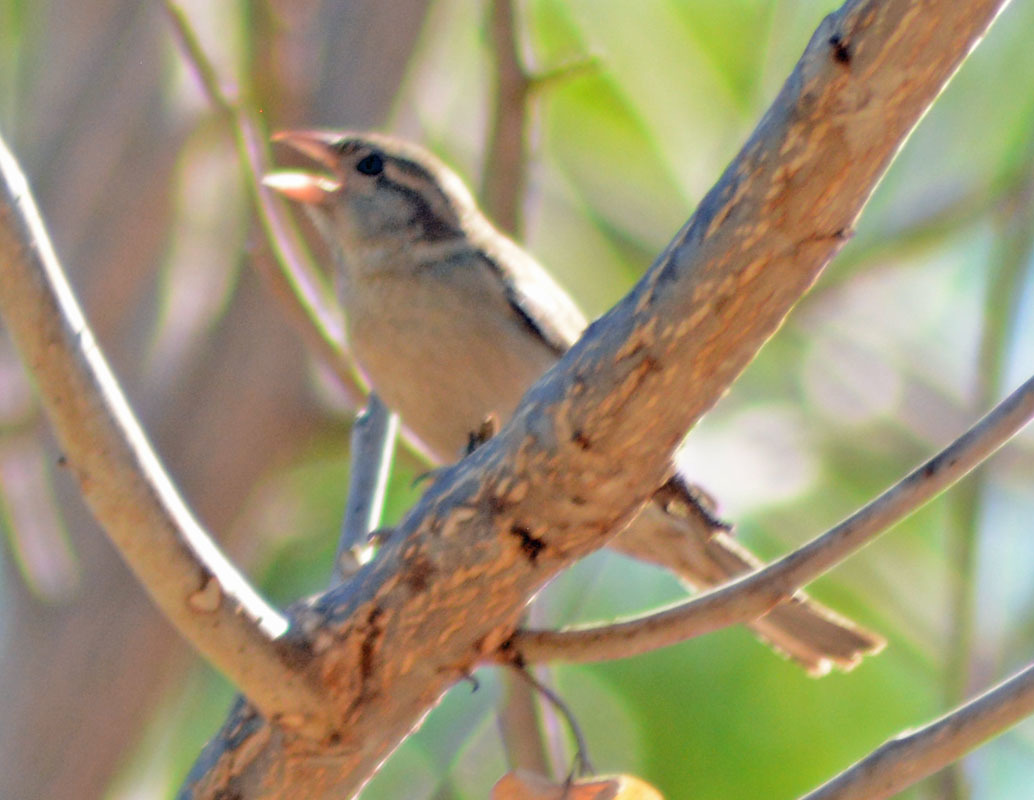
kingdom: Animalia
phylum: Chordata
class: Aves
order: Passeriformes
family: Passeridae
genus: Passer
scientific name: Passer domesticus
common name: House sparrow
